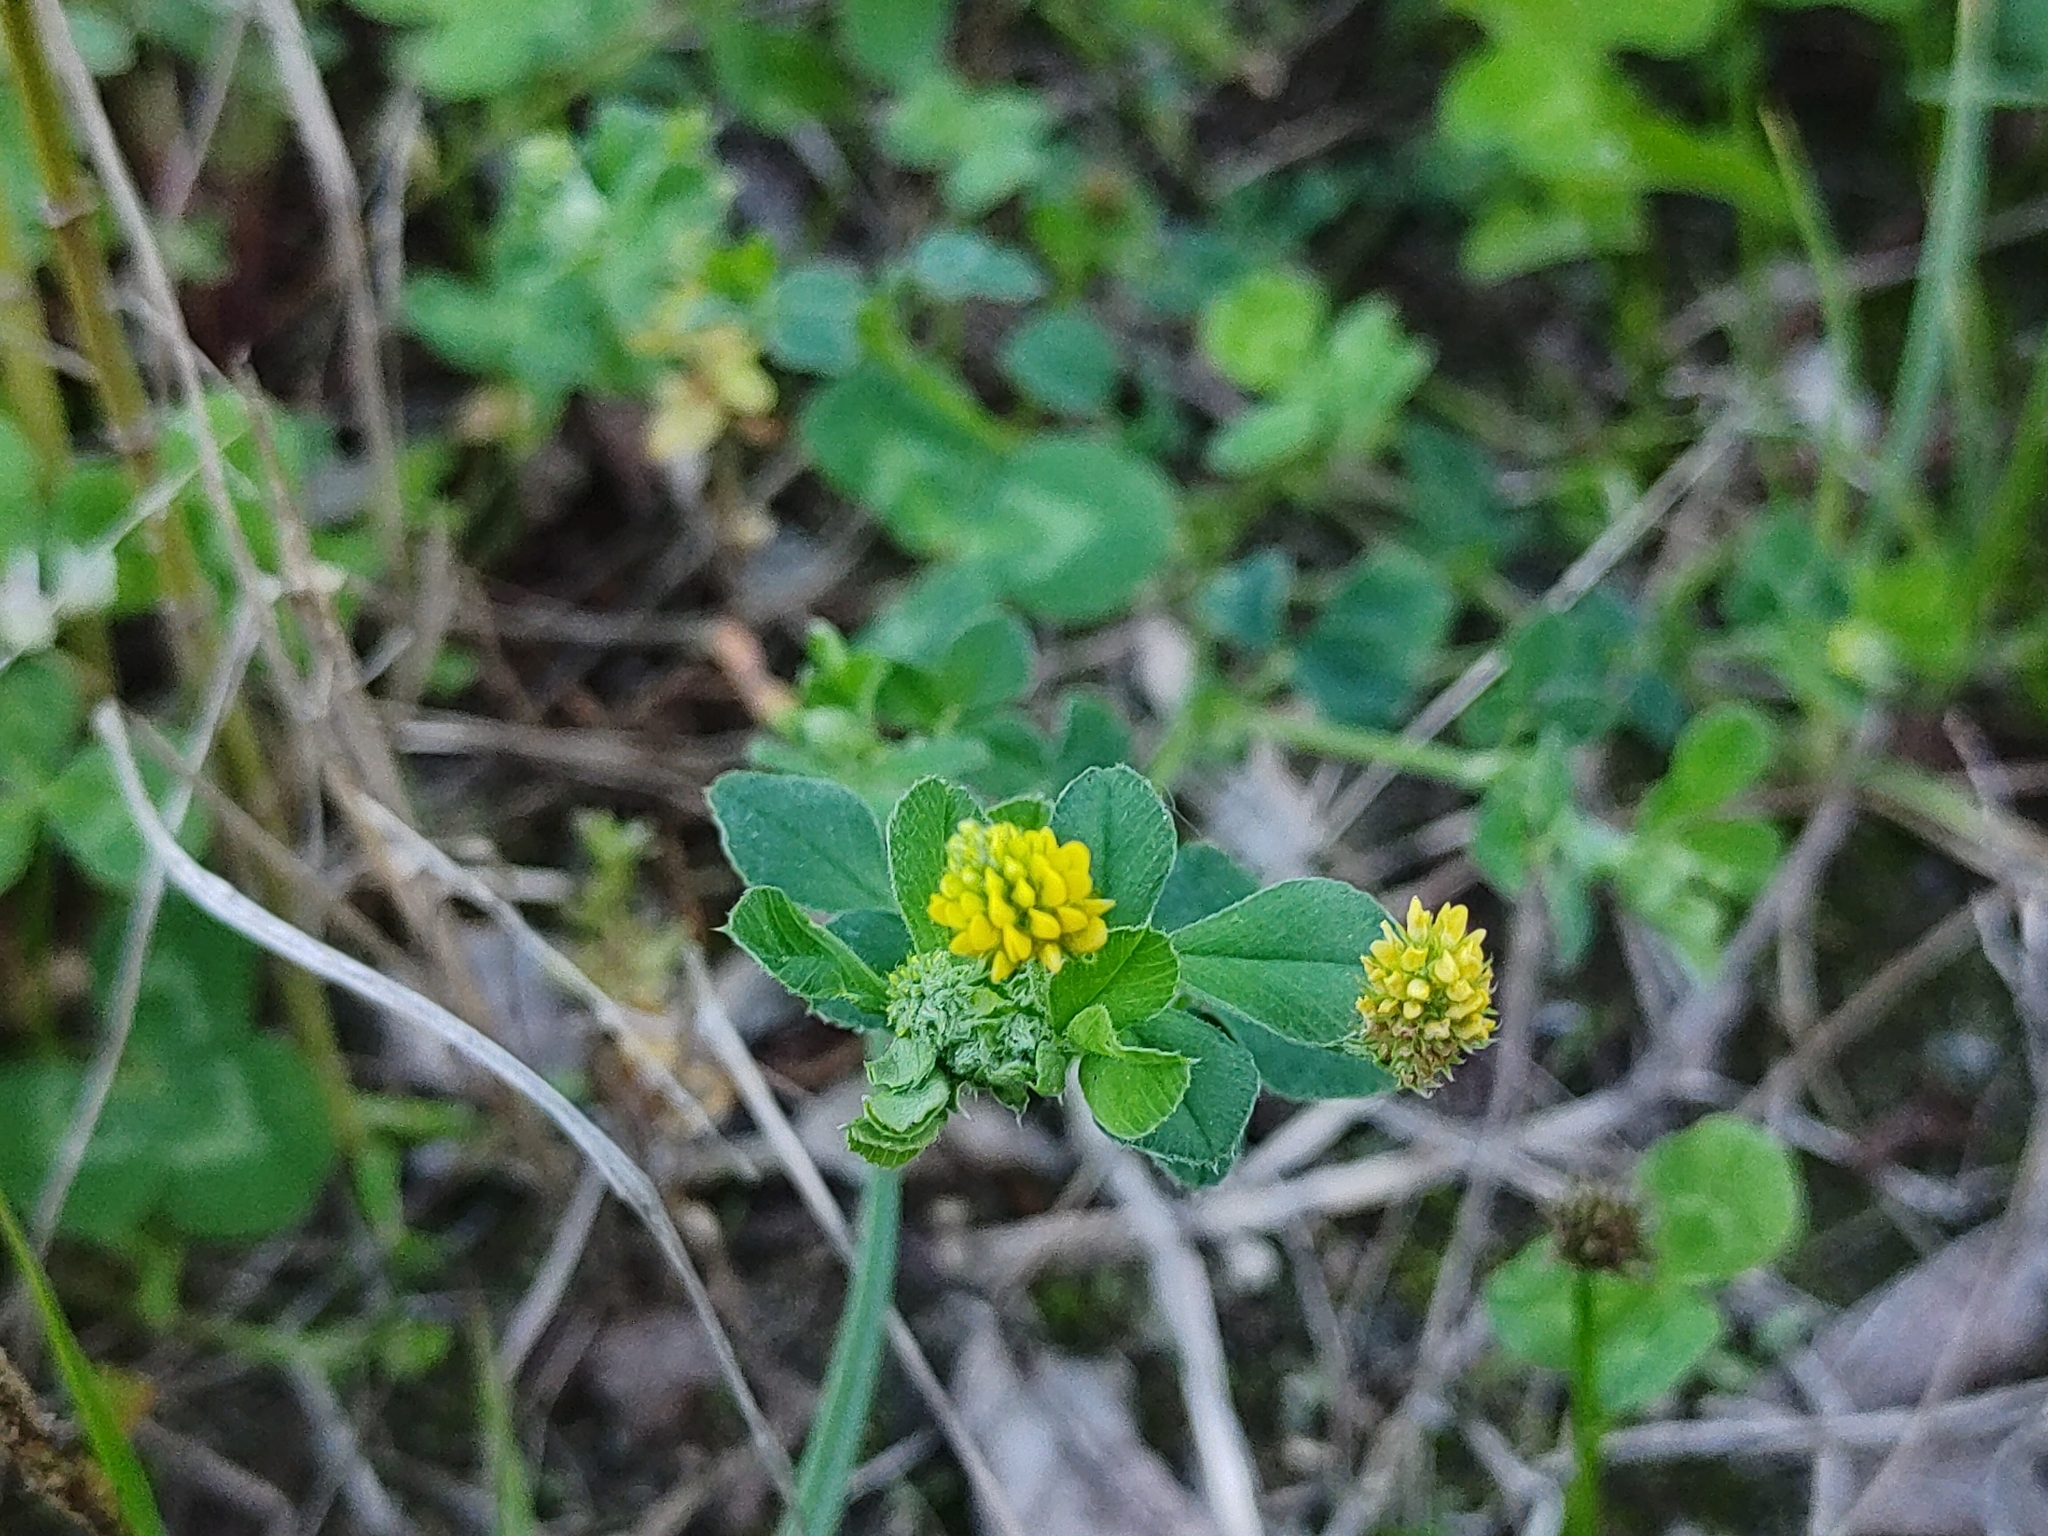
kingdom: Plantae
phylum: Tracheophyta
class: Magnoliopsida
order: Fabales
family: Fabaceae
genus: Medicago
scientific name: Medicago lupulina
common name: Black medick
